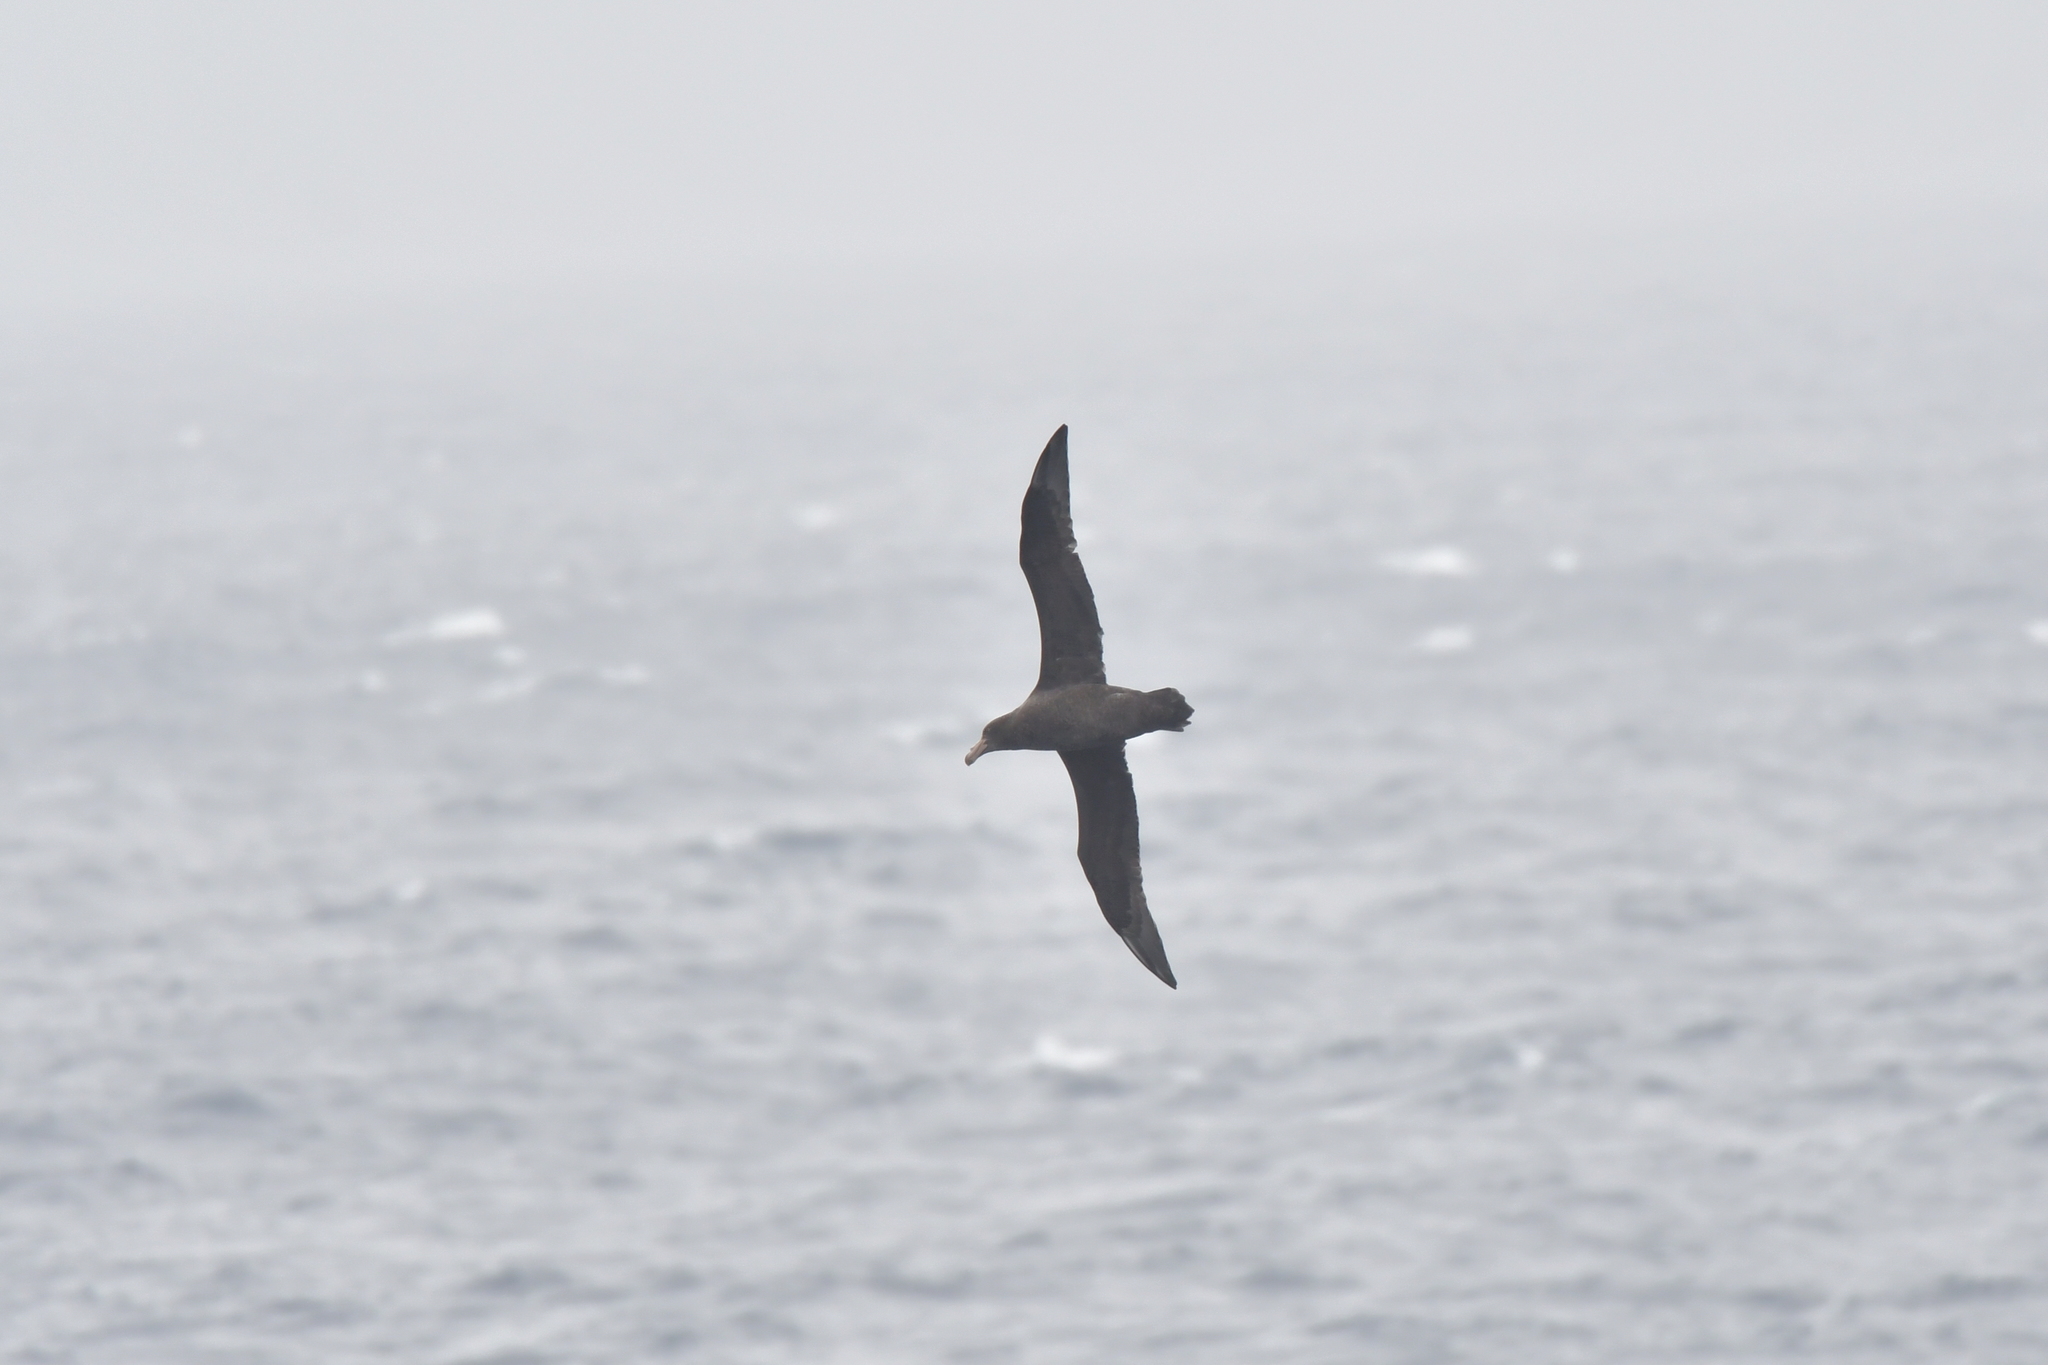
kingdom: Animalia
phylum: Chordata
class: Aves
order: Procellariiformes
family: Procellariidae
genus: Macronectes
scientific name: Macronectes halli
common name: Northern giant petrel
